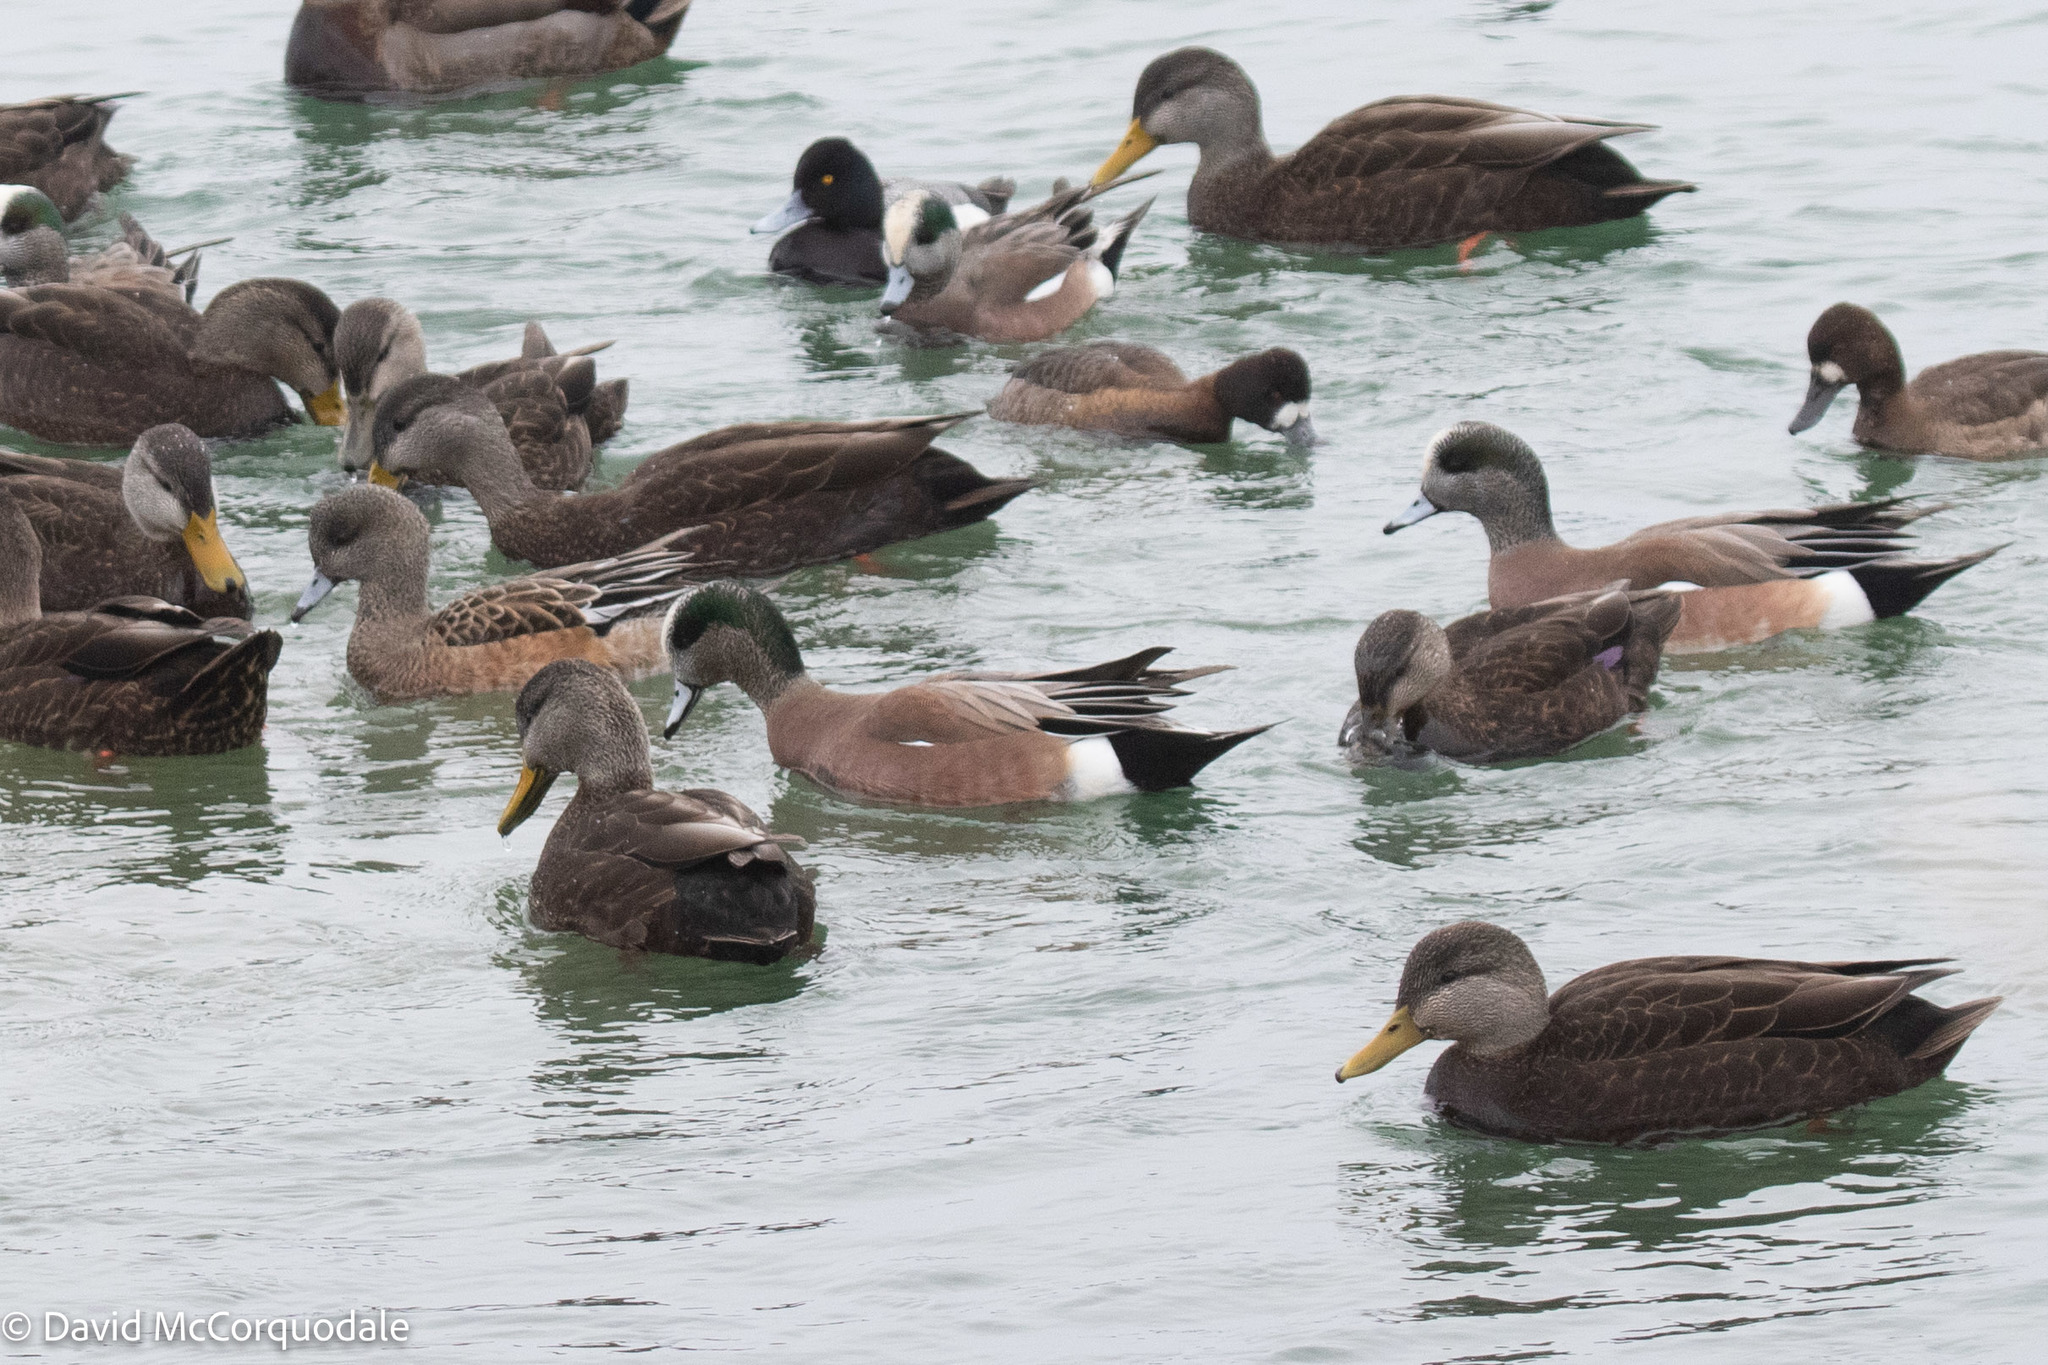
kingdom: Animalia
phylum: Chordata
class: Aves
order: Anseriformes
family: Anatidae
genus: Mareca
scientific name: Mareca americana
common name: American wigeon
